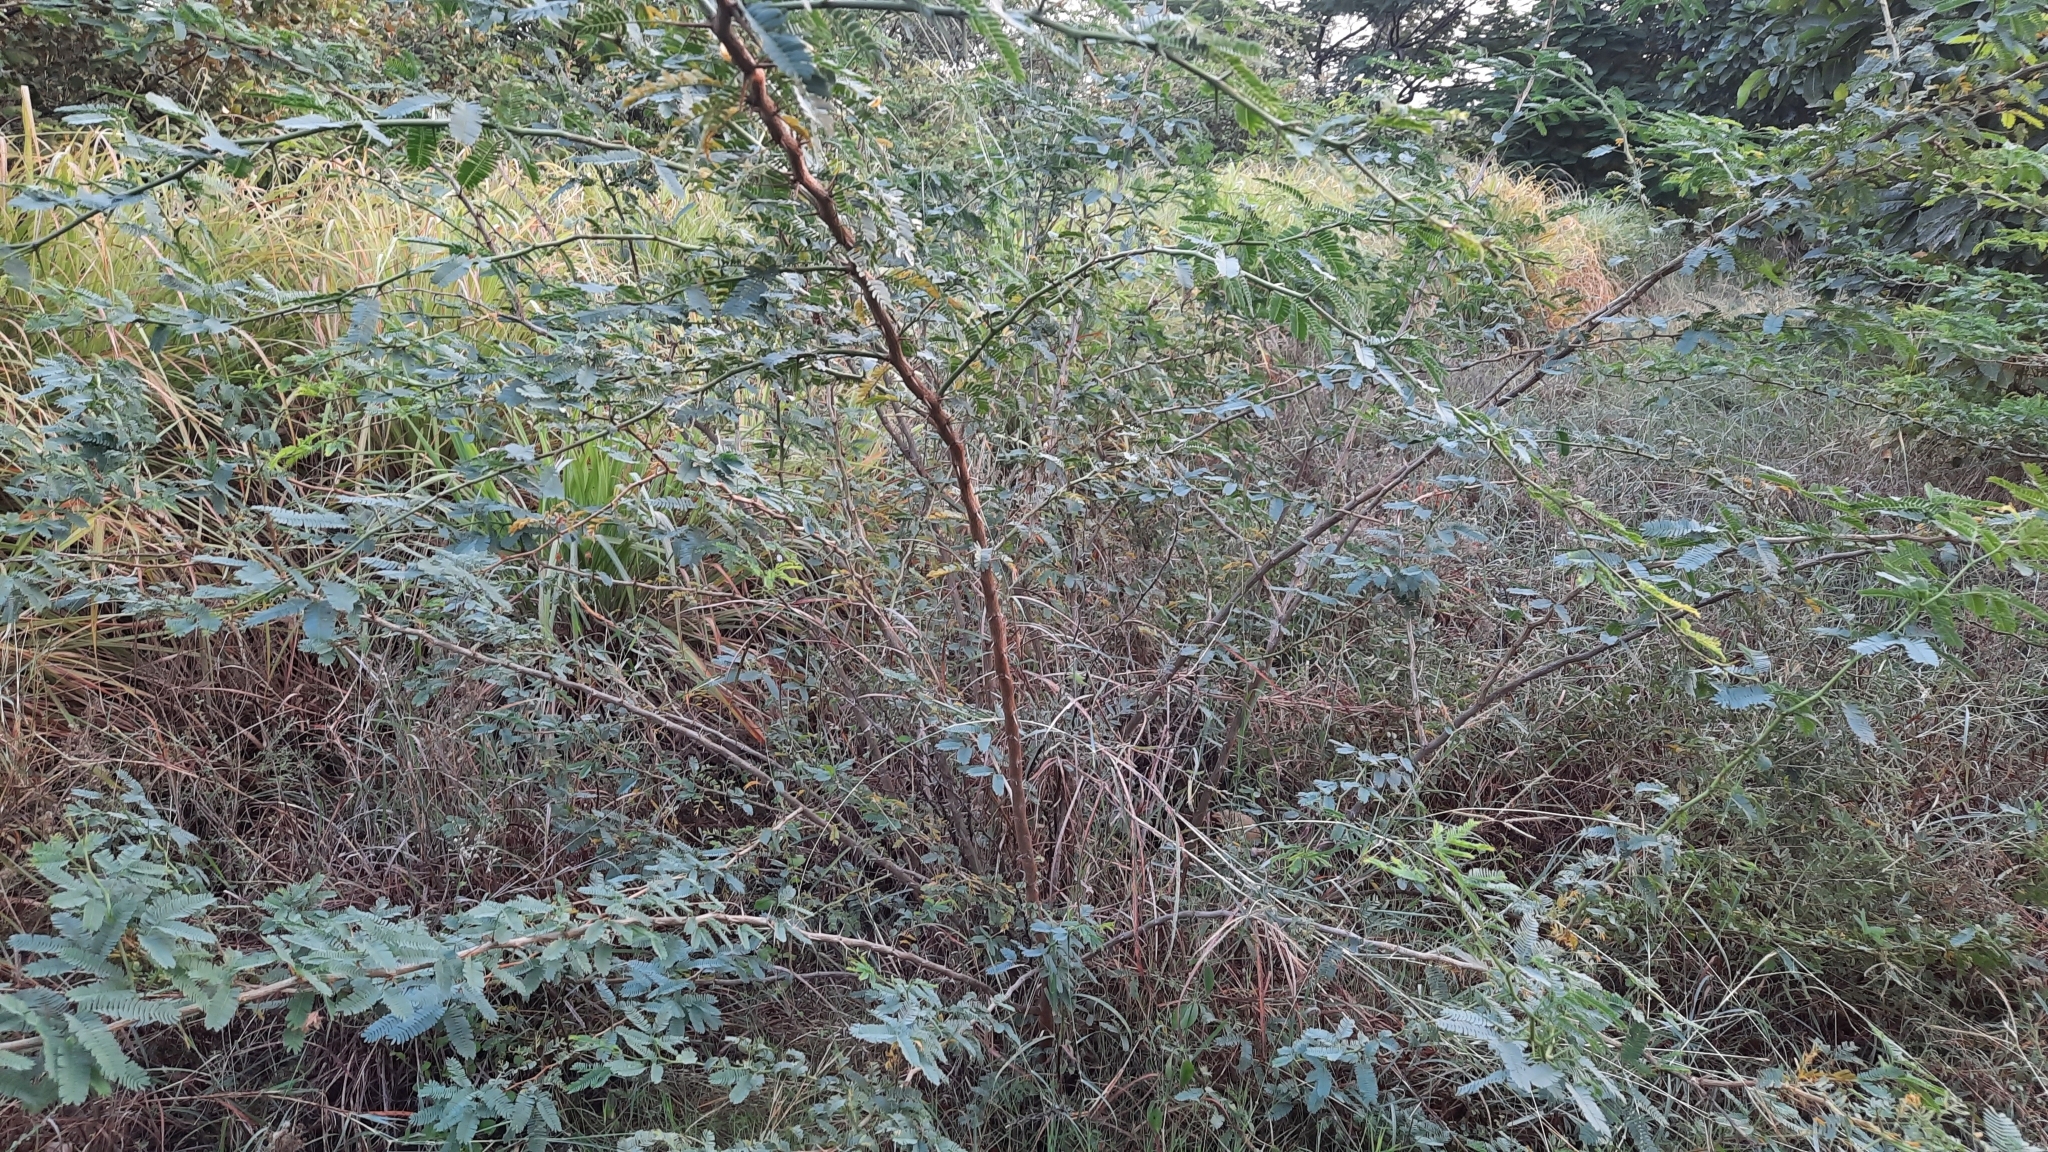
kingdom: Plantae
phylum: Tracheophyta
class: Magnoliopsida
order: Fabales
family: Fabaceae
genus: Prosopis
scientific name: Prosopis juliflora
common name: Mesquite
